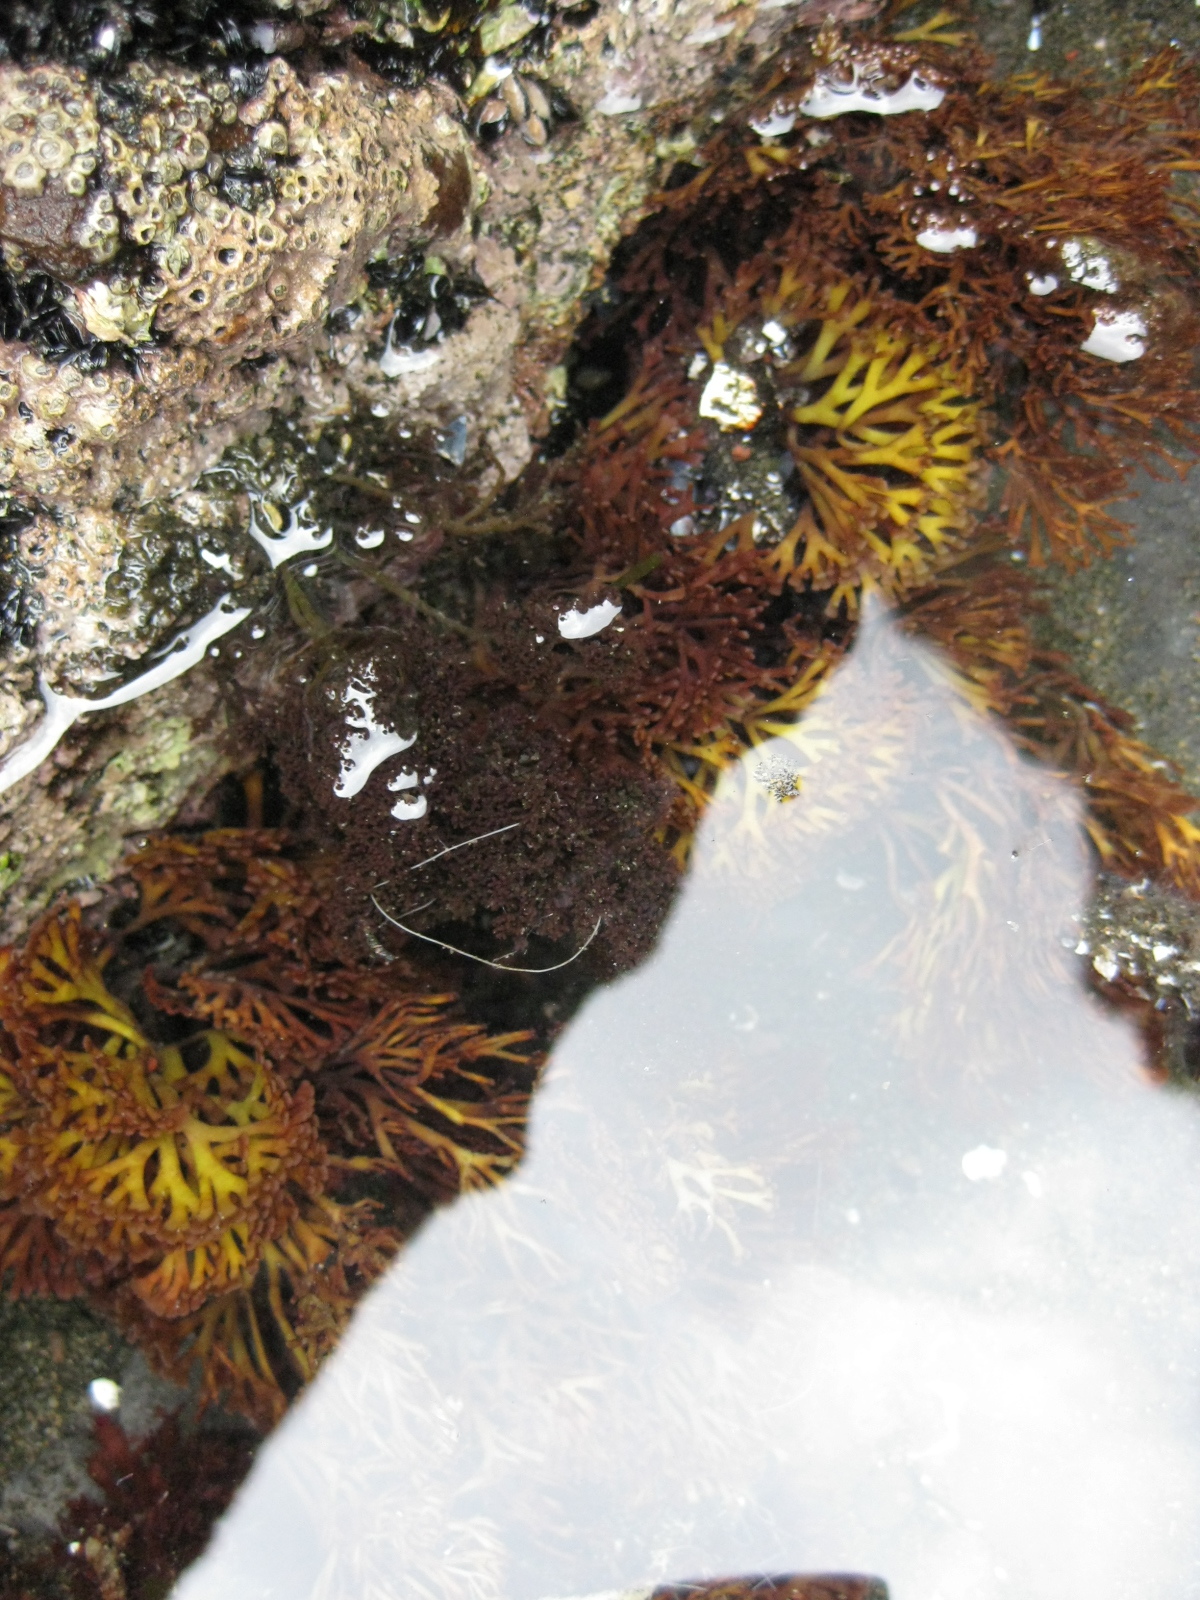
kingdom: Plantae
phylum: Rhodophyta
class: Florideophyceae
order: Gracilariales
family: Gracilariaceae
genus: Melanthalia
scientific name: Melanthalia abscissa
